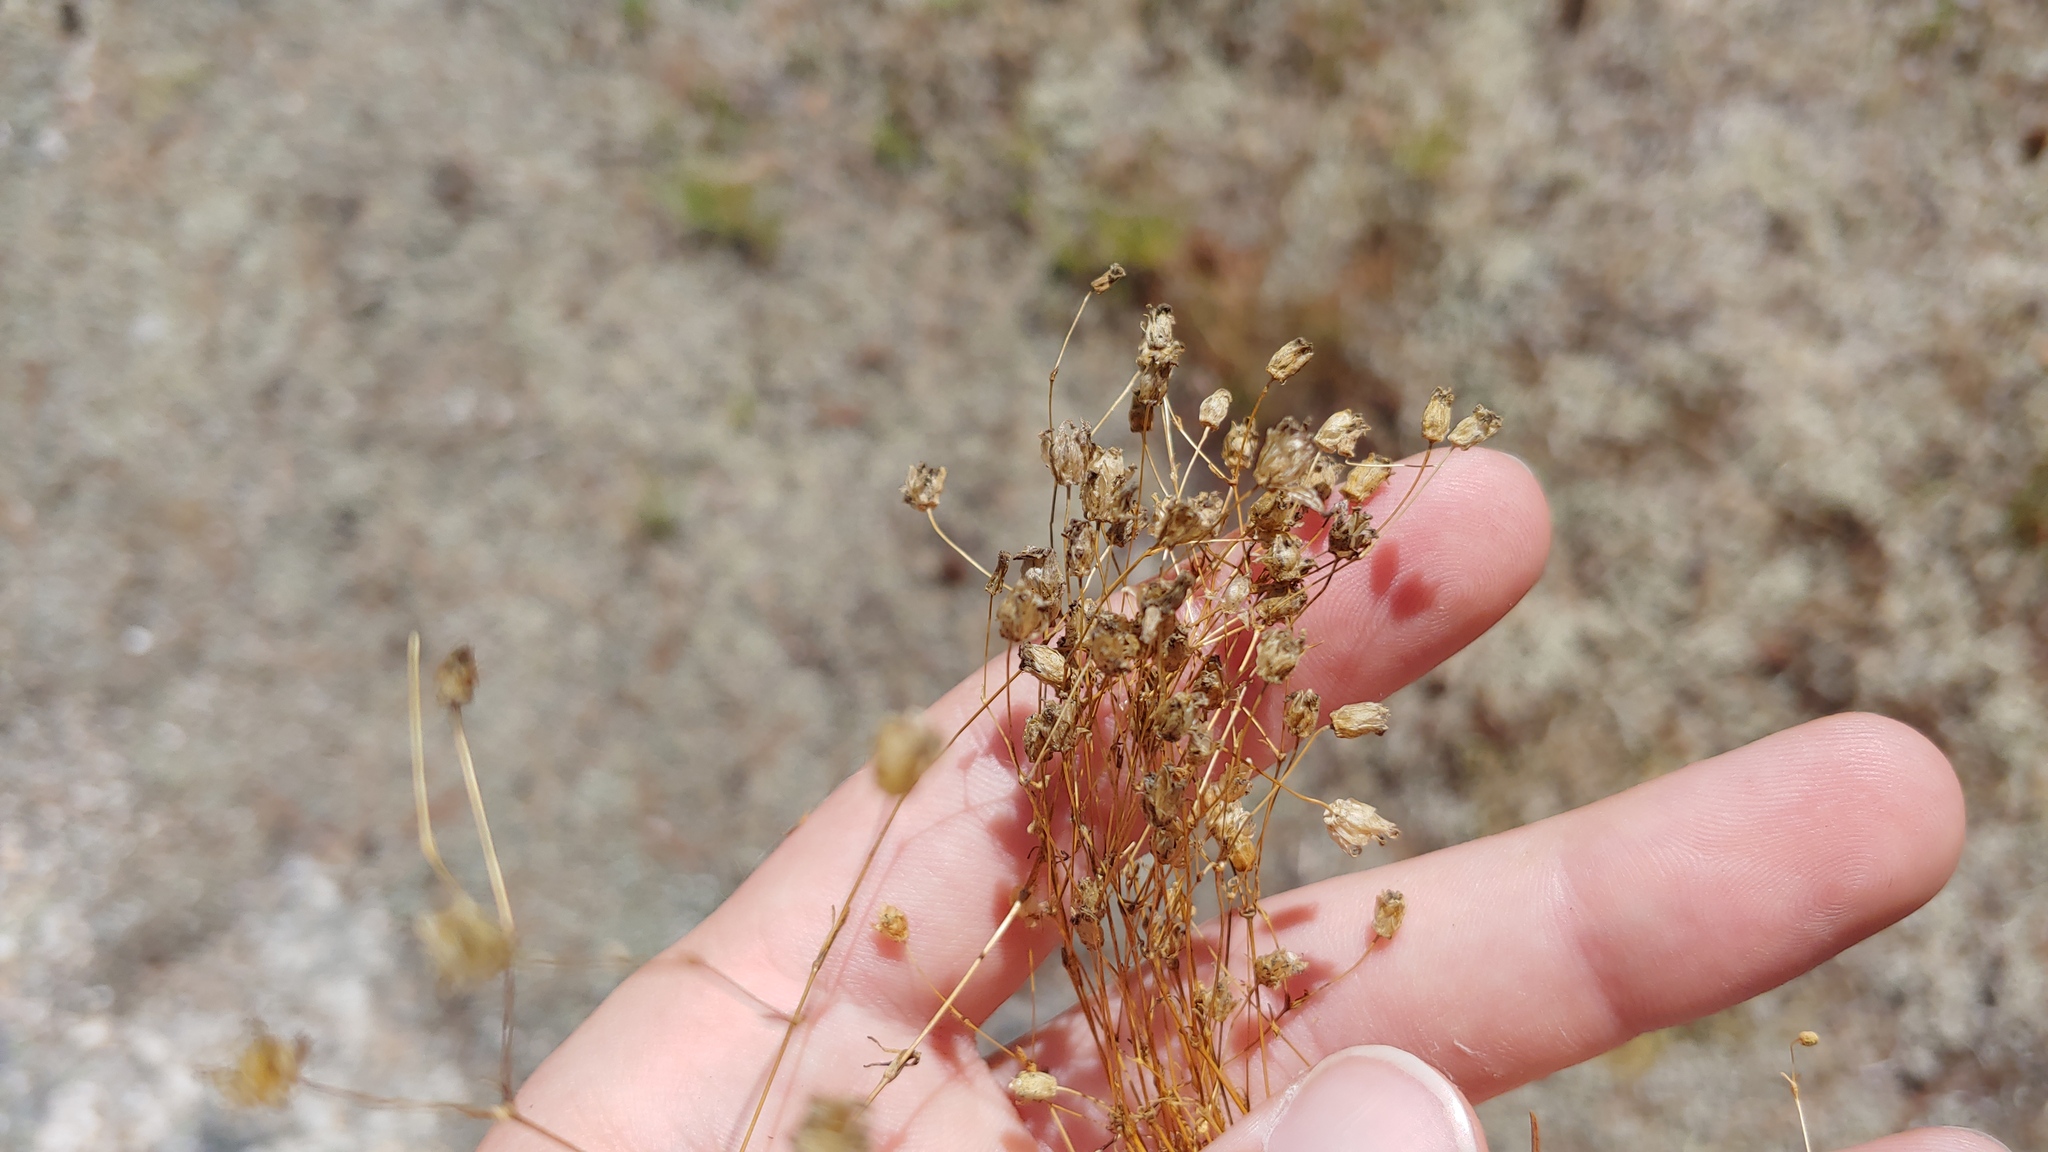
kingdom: Plantae
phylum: Tracheophyta
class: Magnoliopsida
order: Caryophyllales
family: Caryophyllaceae
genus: Geocarpon
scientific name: Geocarpon groenlandicum
